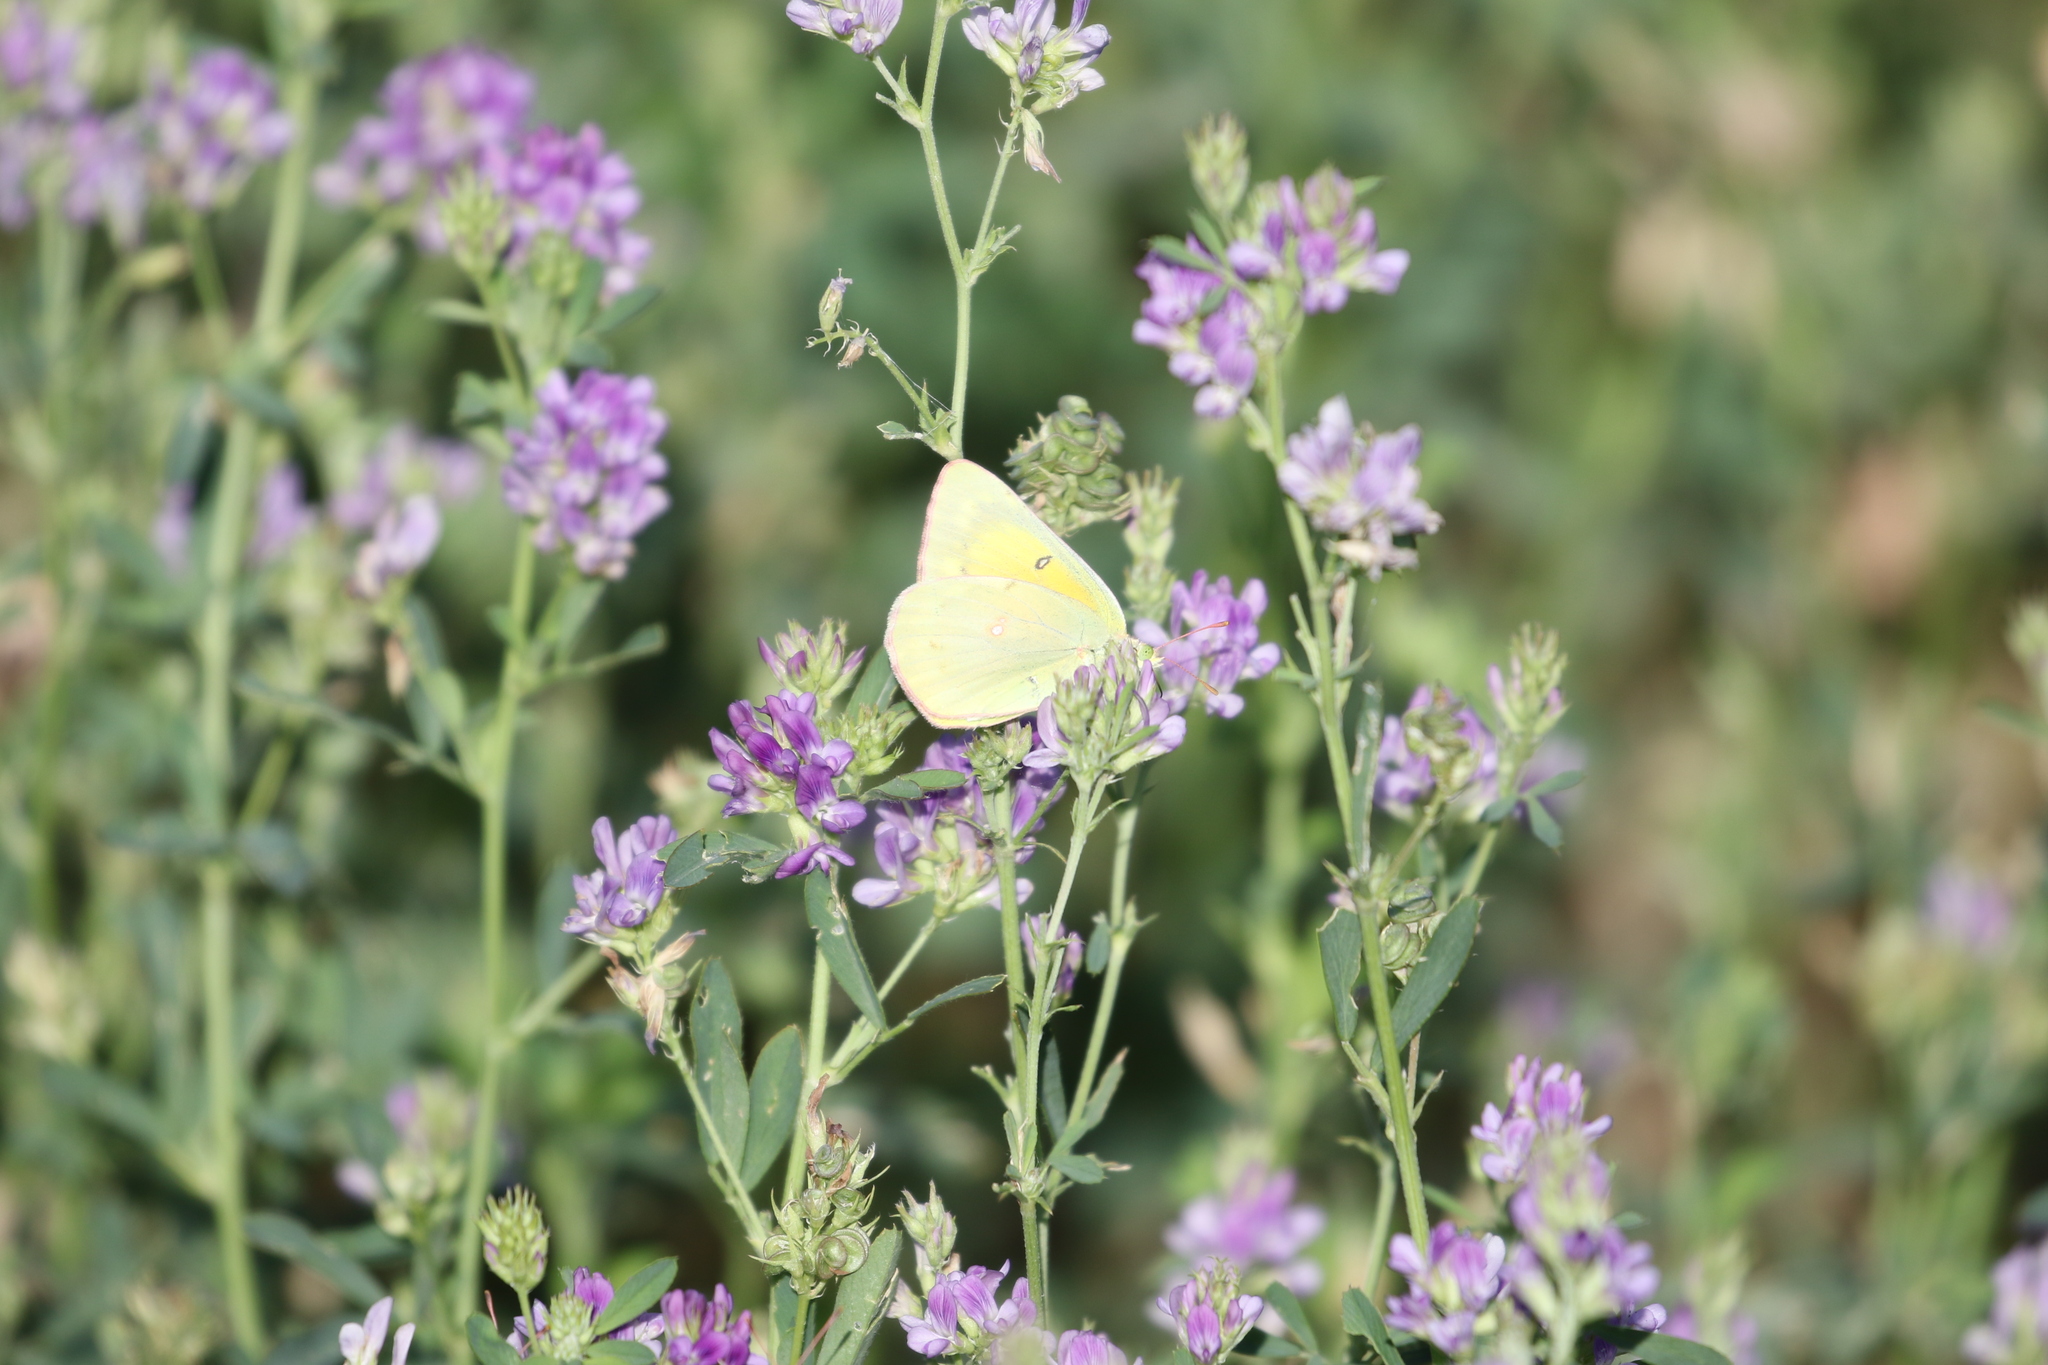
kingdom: Animalia
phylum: Arthropoda
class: Insecta
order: Lepidoptera
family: Pieridae
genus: Colias
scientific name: Colias eurytheme
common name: Alfalfa butterfly
